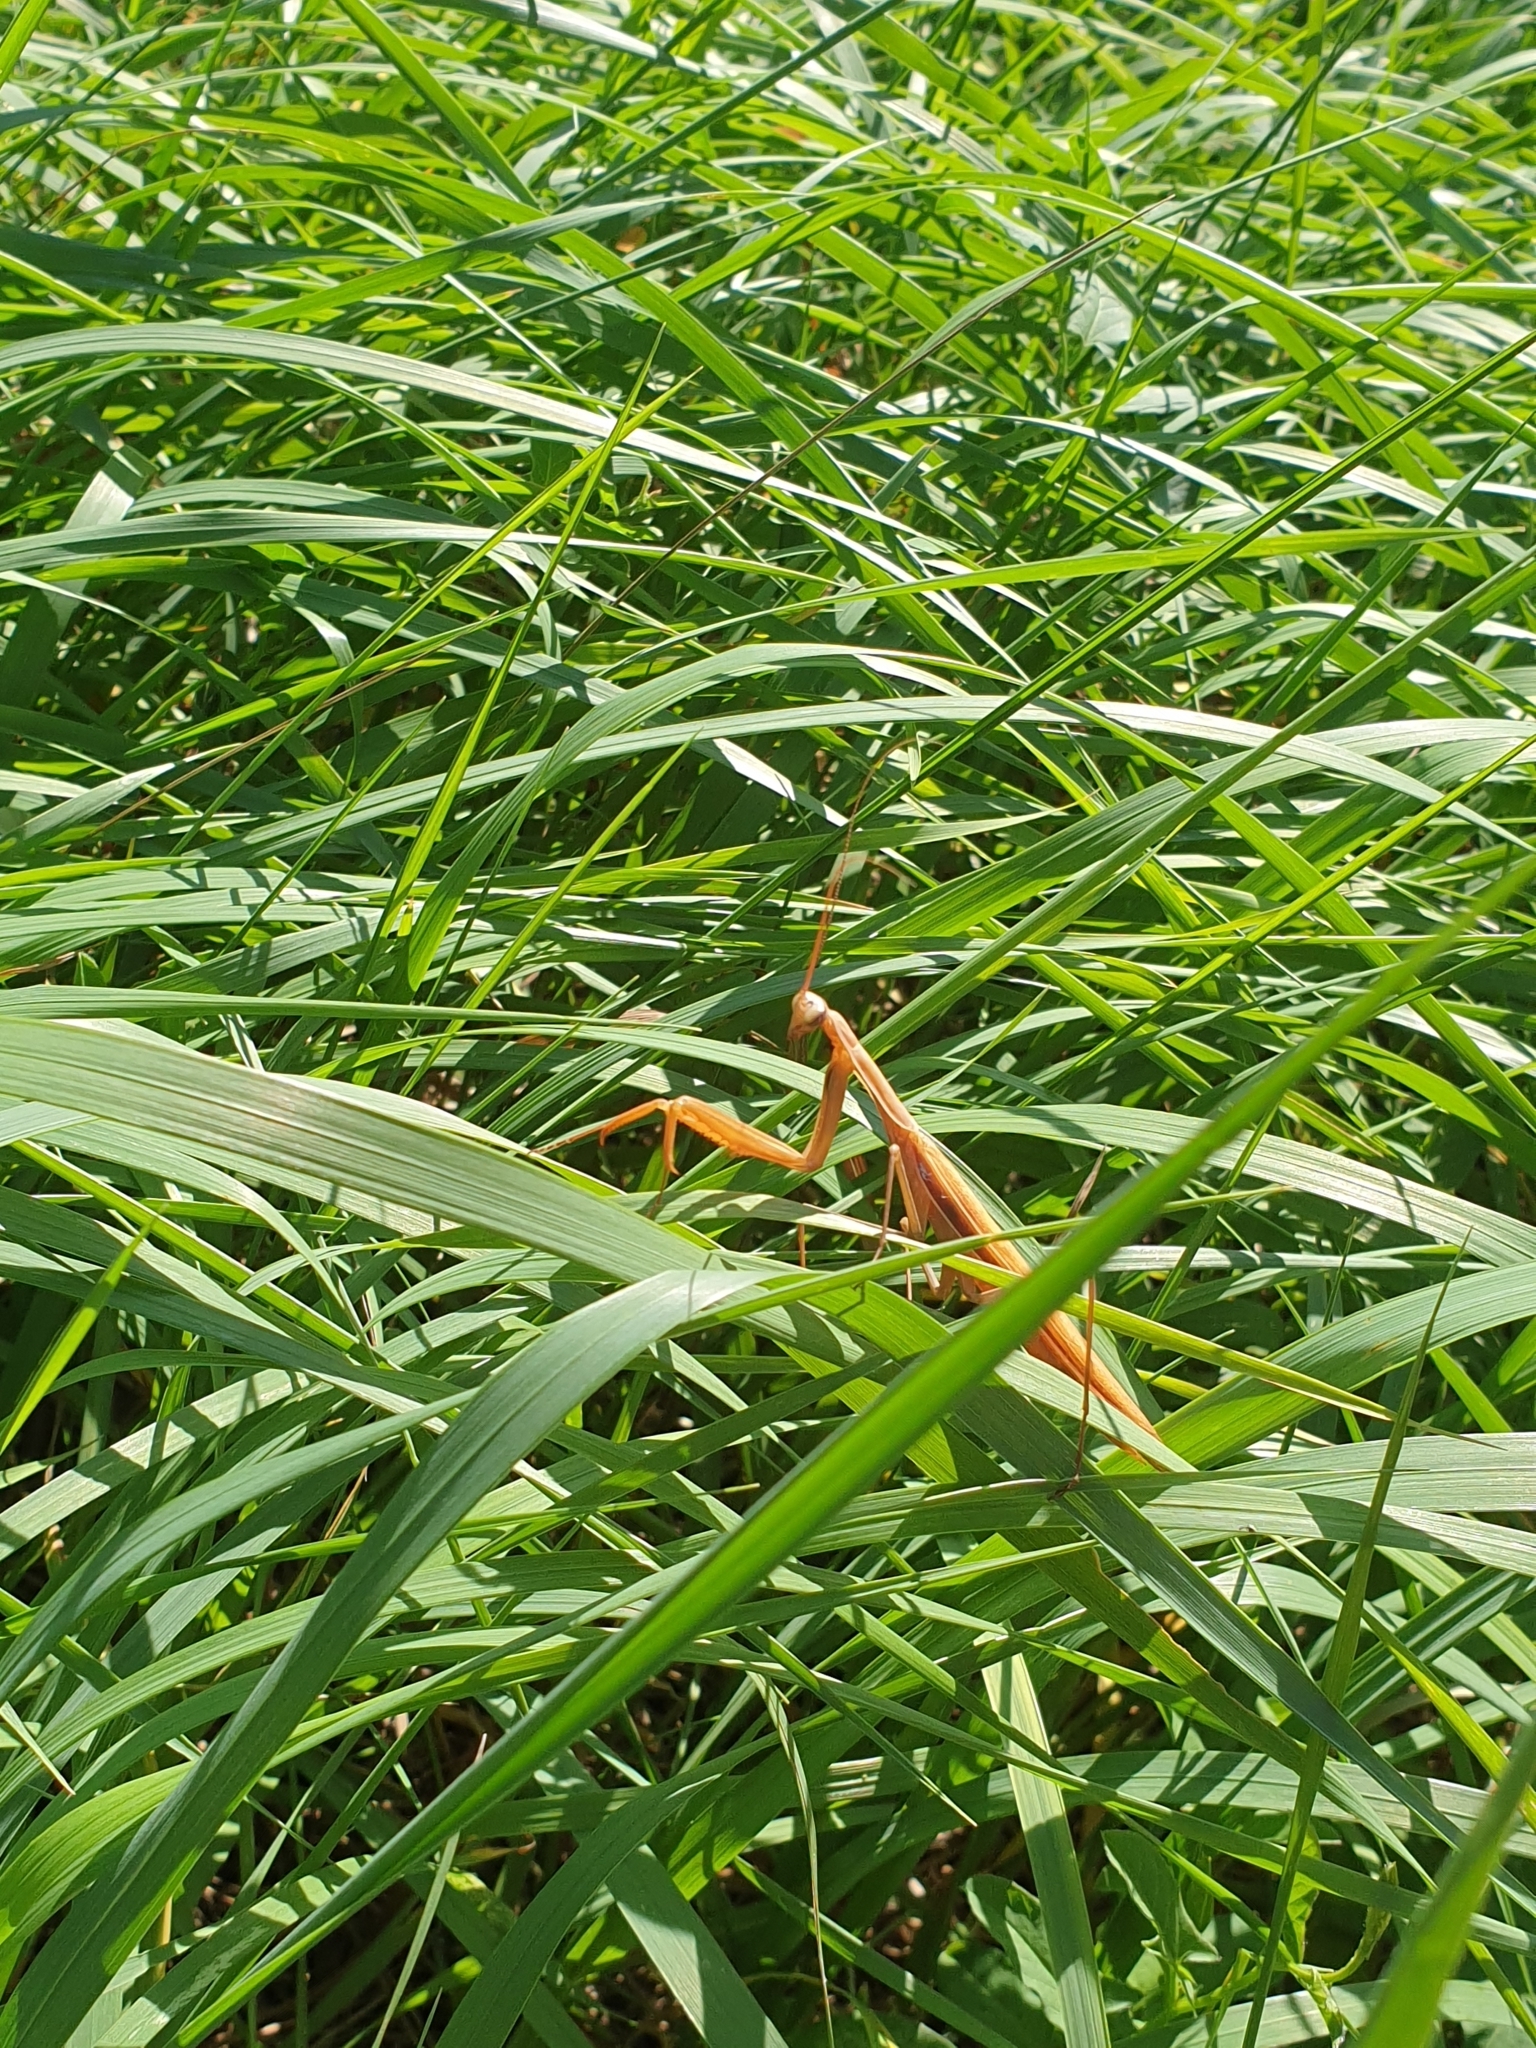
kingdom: Animalia
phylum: Arthropoda
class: Insecta
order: Mantodea
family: Mantidae
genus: Mantis
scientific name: Mantis religiosa
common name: Praying mantis
